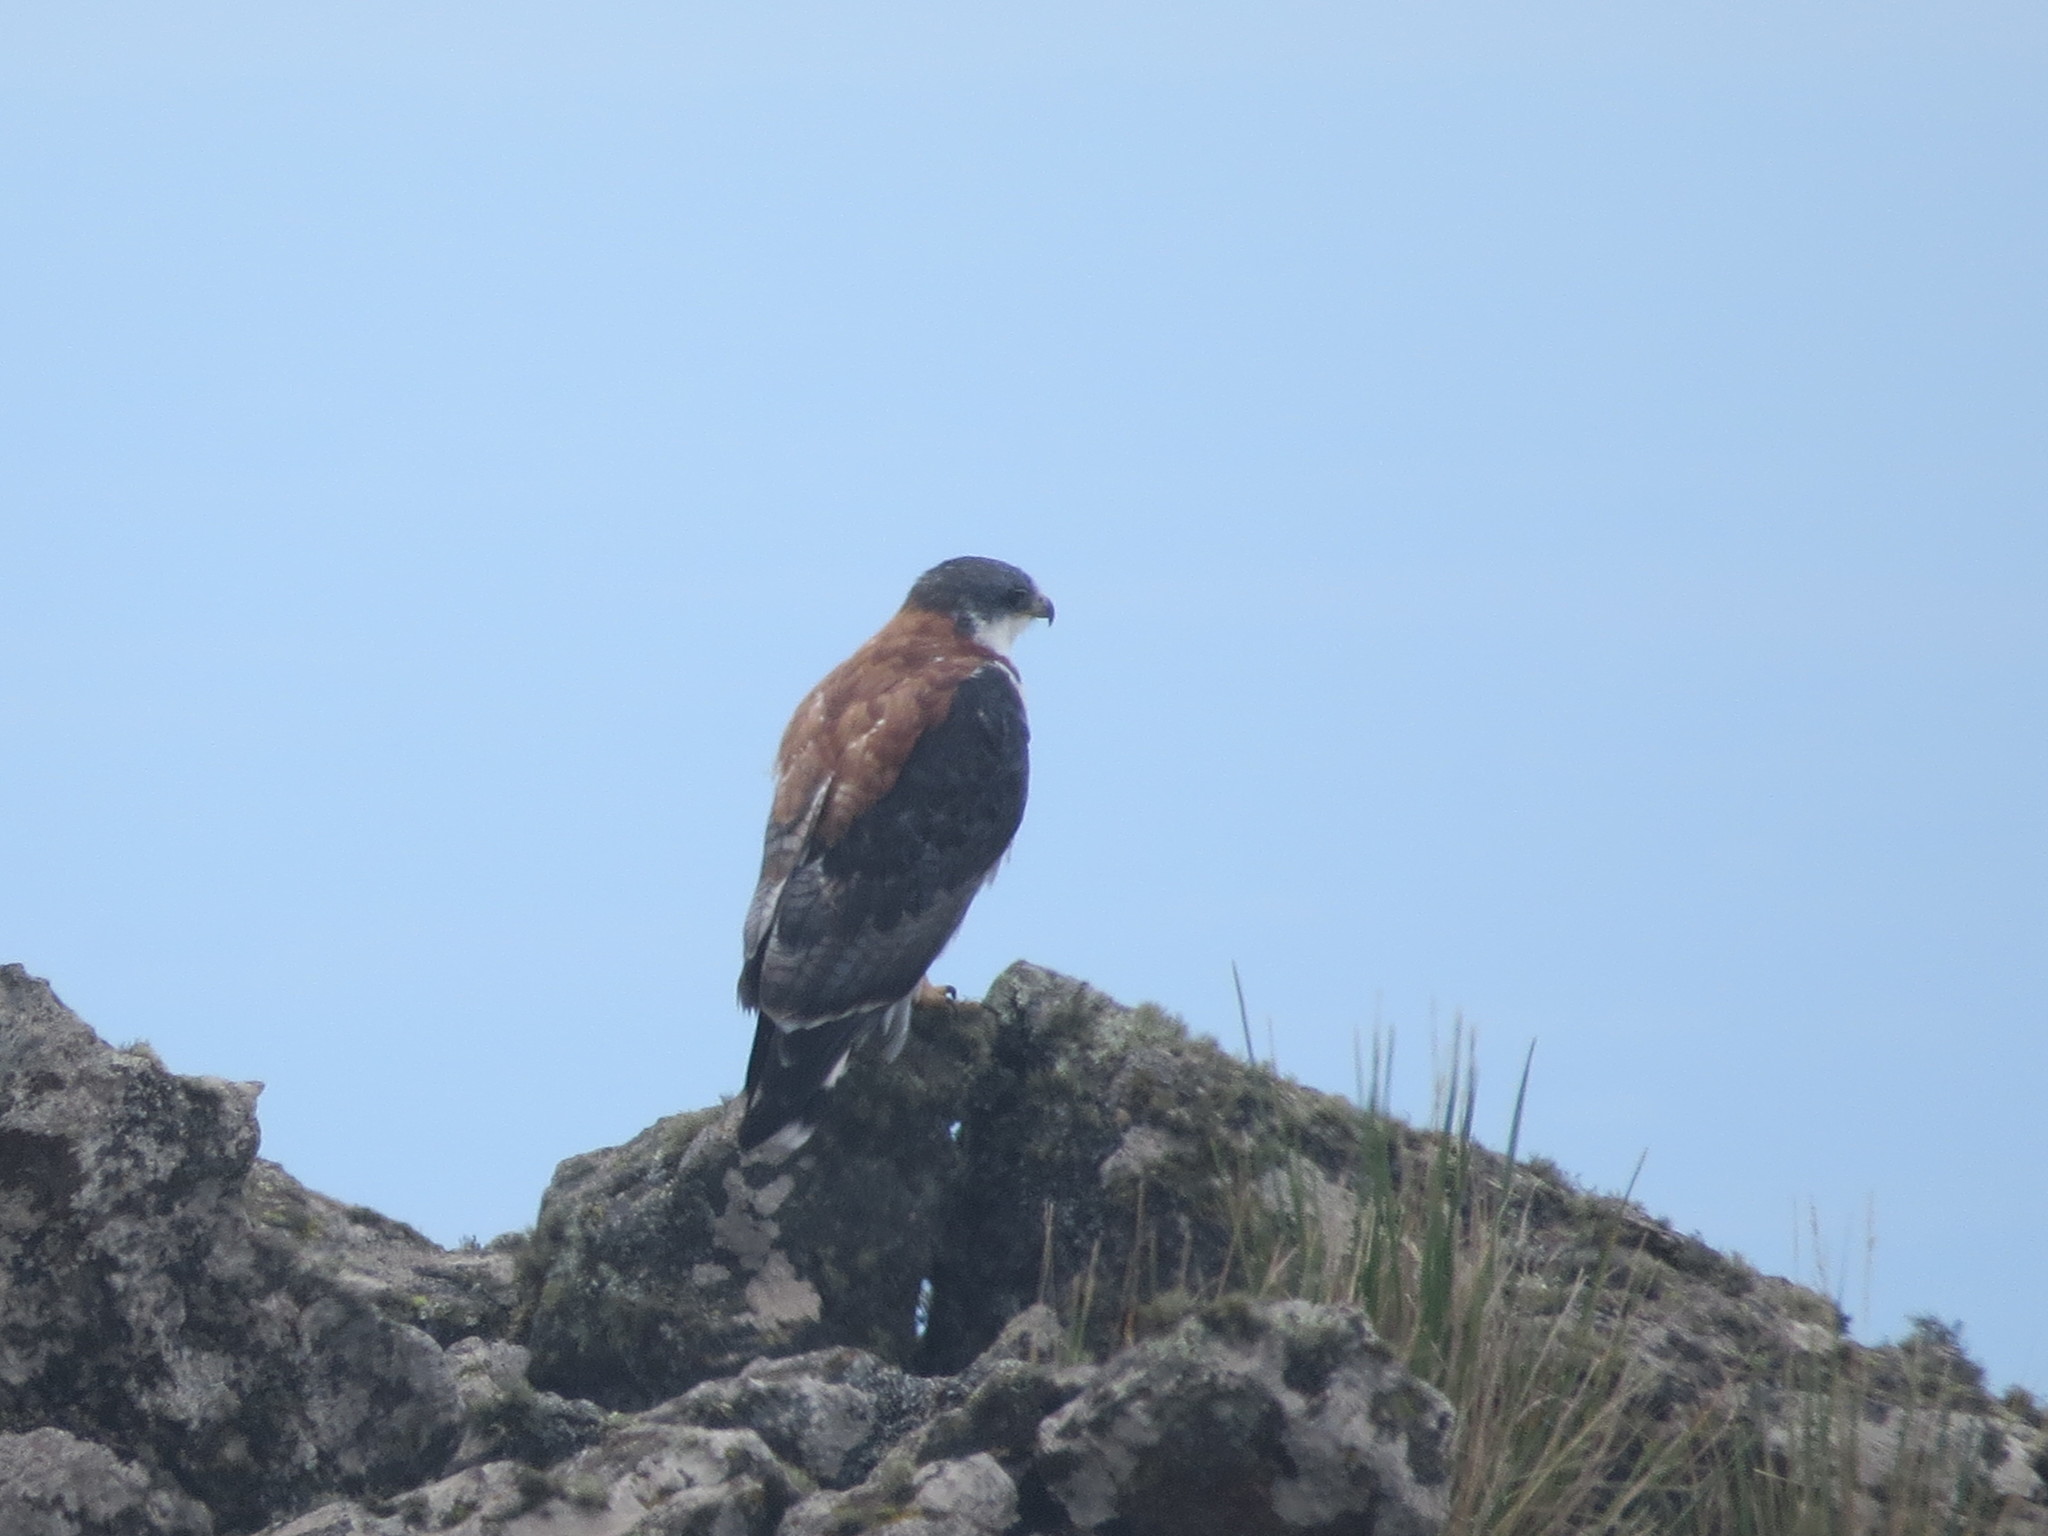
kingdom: Animalia
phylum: Chordata
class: Aves
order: Accipitriformes
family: Accipitridae
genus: Buteo
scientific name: Buteo polyosoma
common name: Variable hawk
